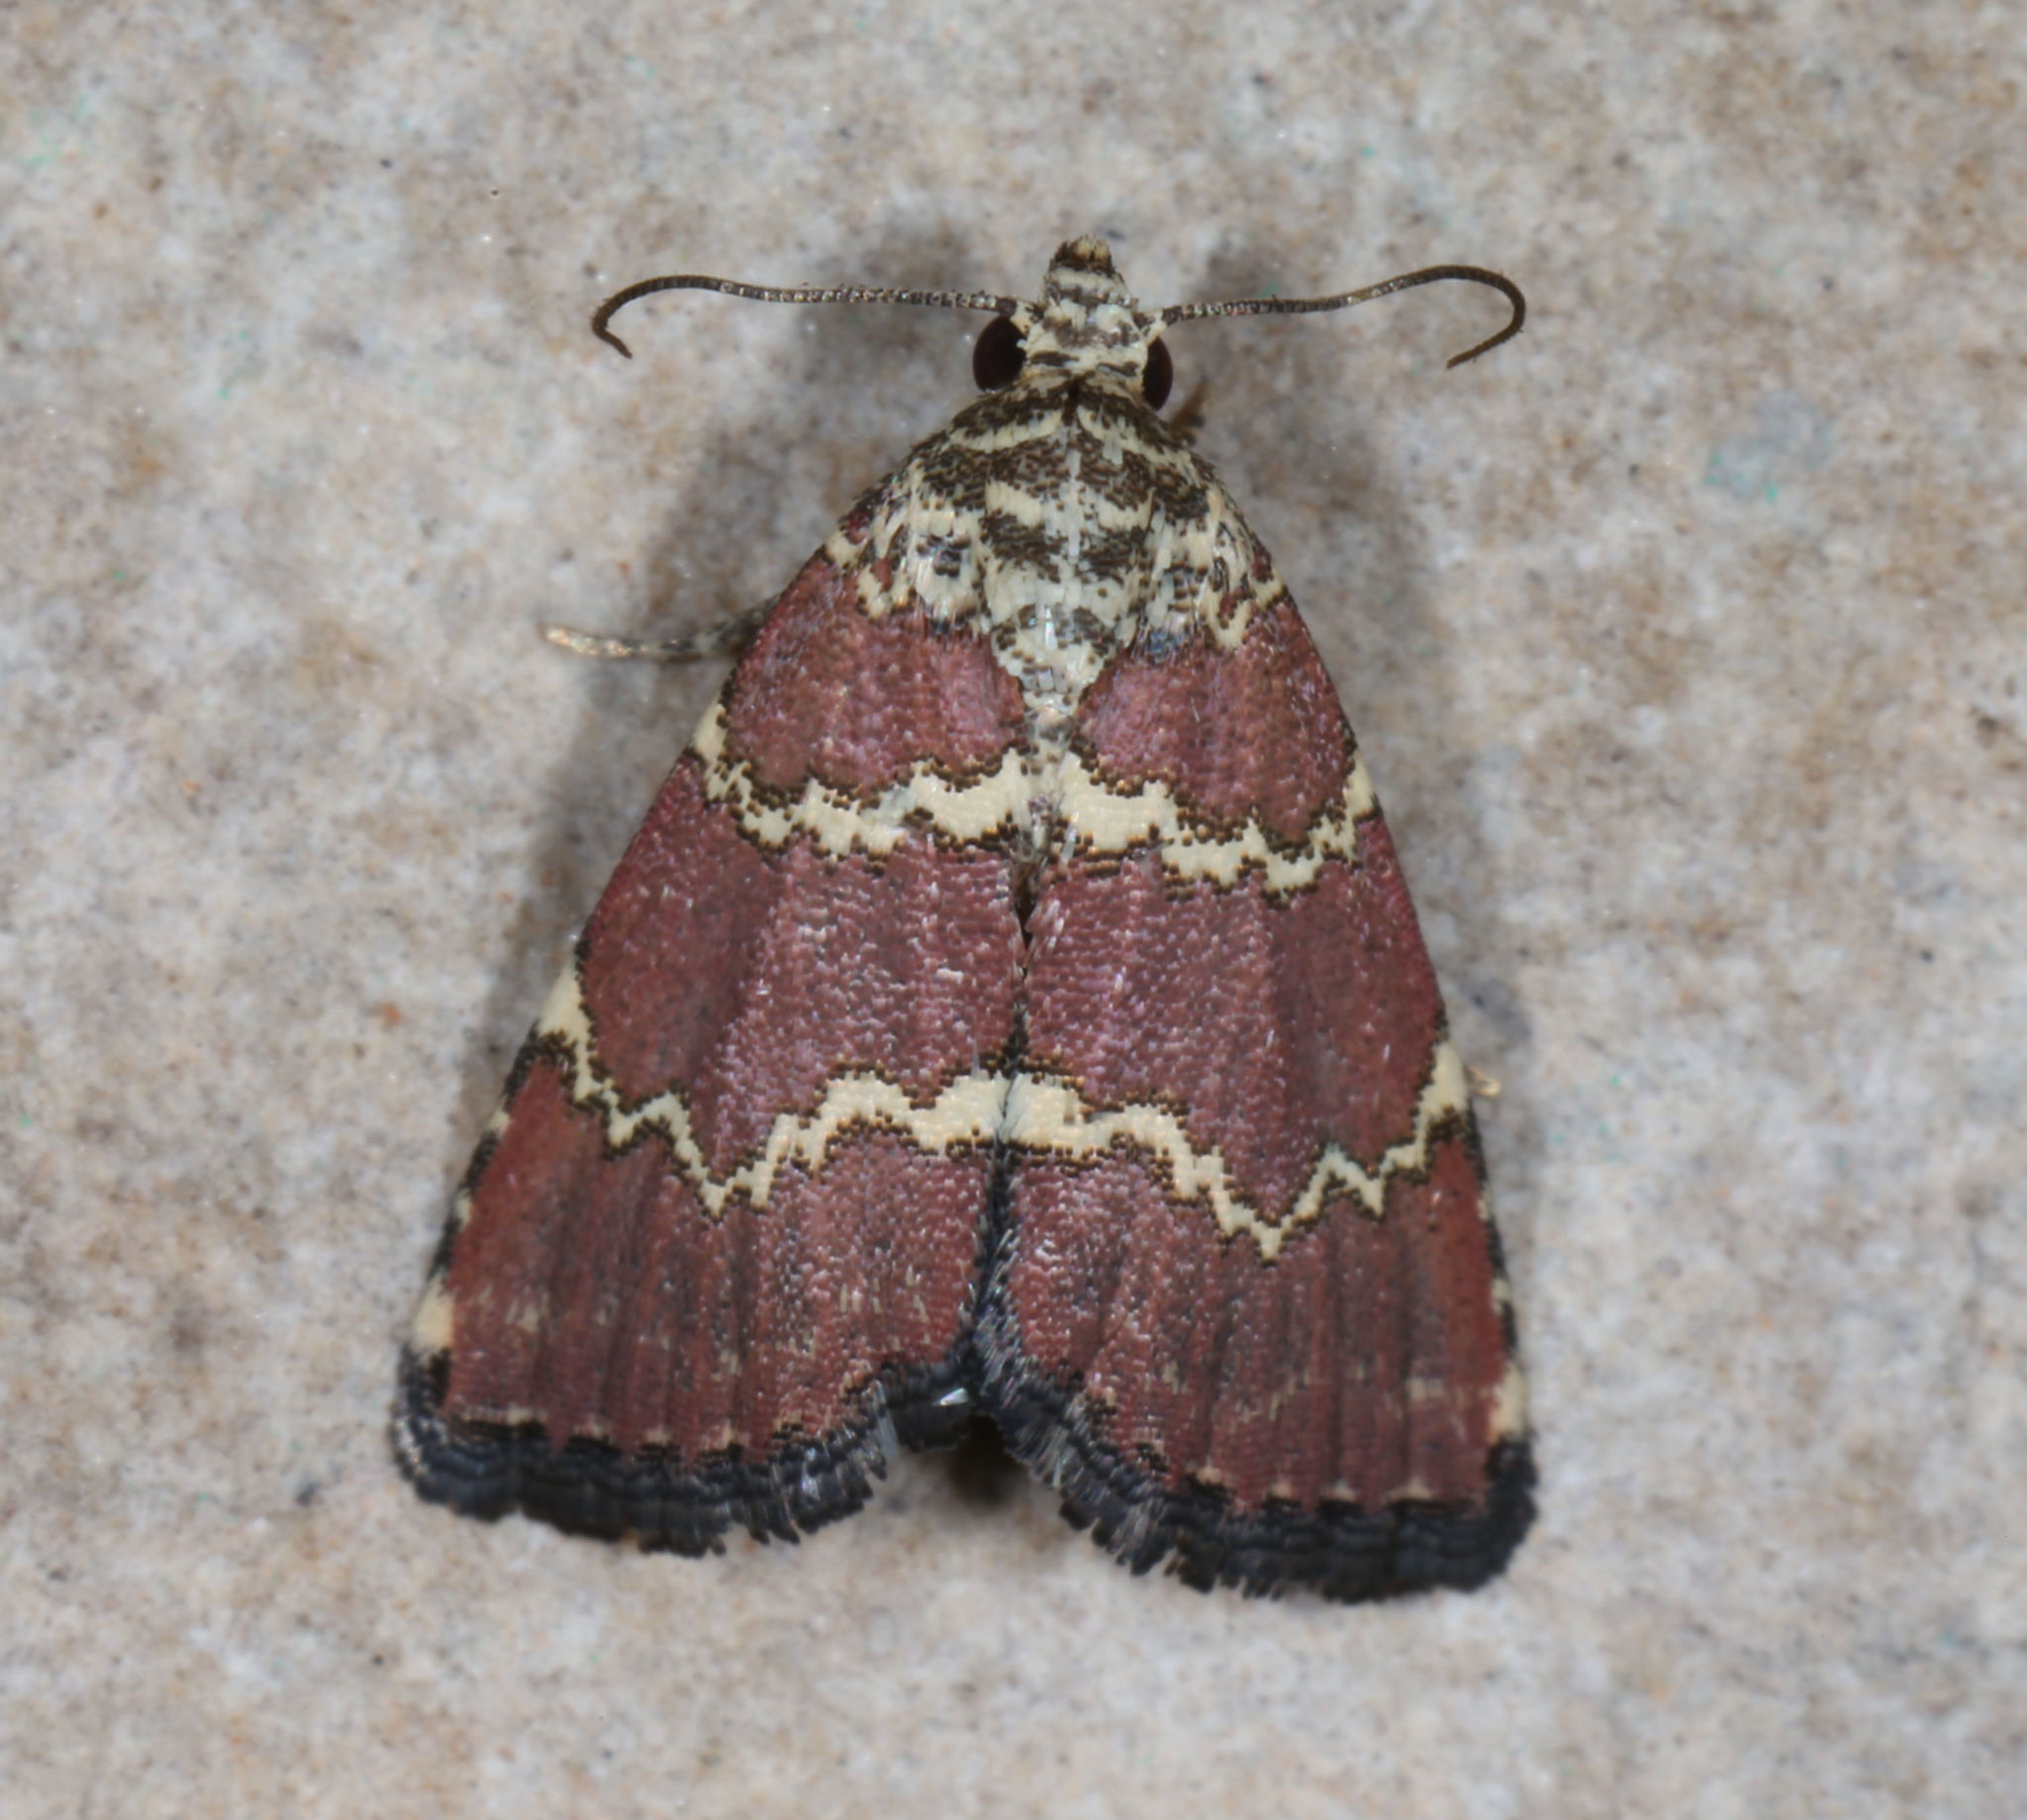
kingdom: Animalia
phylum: Arthropoda
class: Insecta
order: Lepidoptera
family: Noctuidae
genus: Phoenicophanta
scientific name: Phoenicophanta modestula
